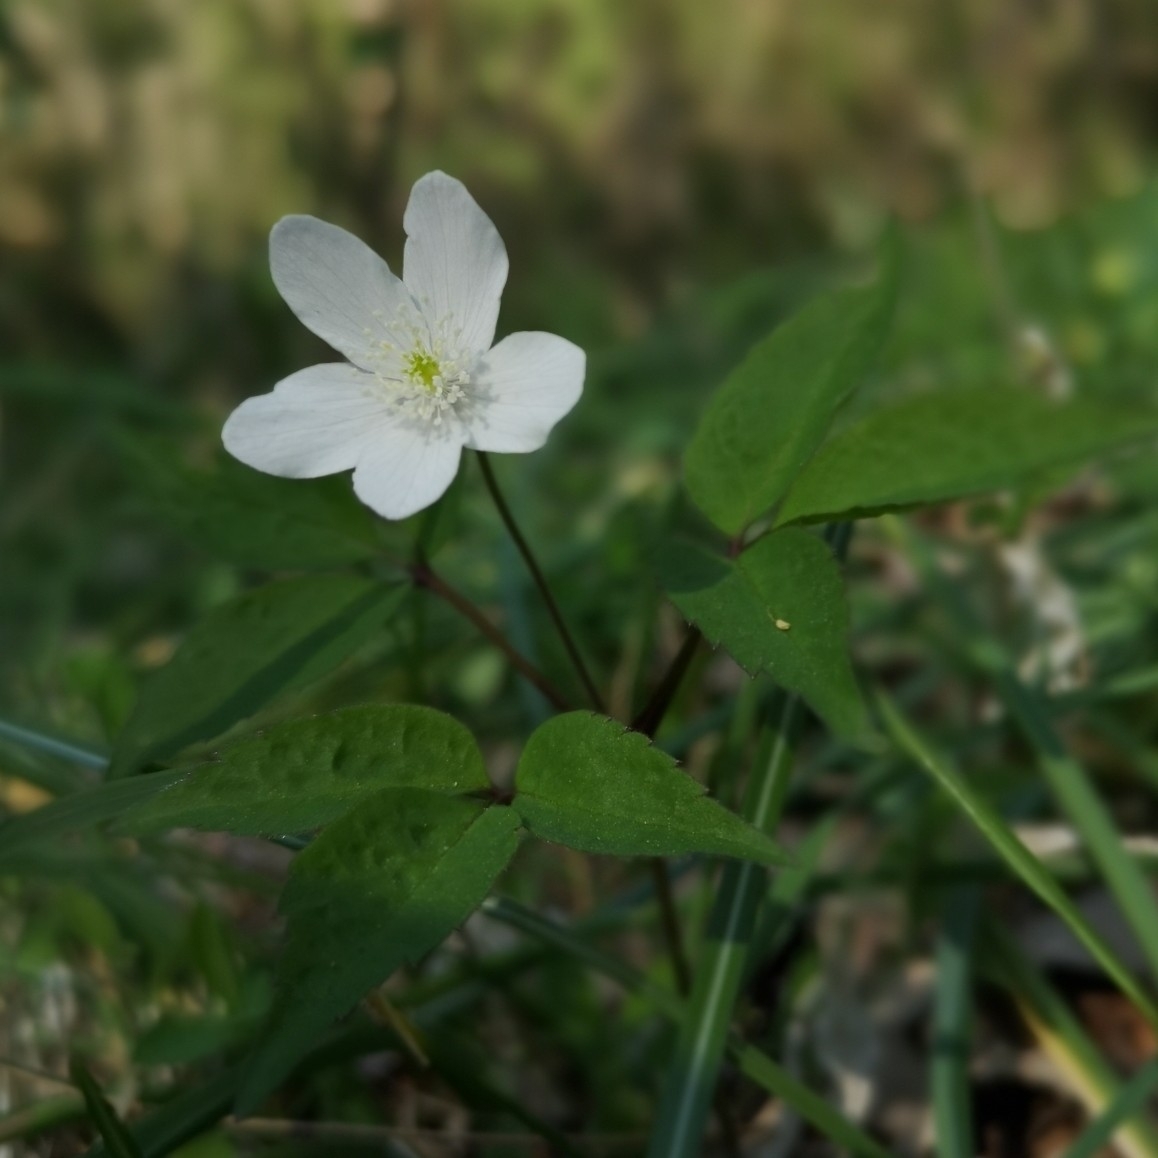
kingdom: Plantae
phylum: Tracheophyta
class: Magnoliopsida
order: Ranunculales
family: Ranunculaceae
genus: Anemone
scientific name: Anemone trifolia
